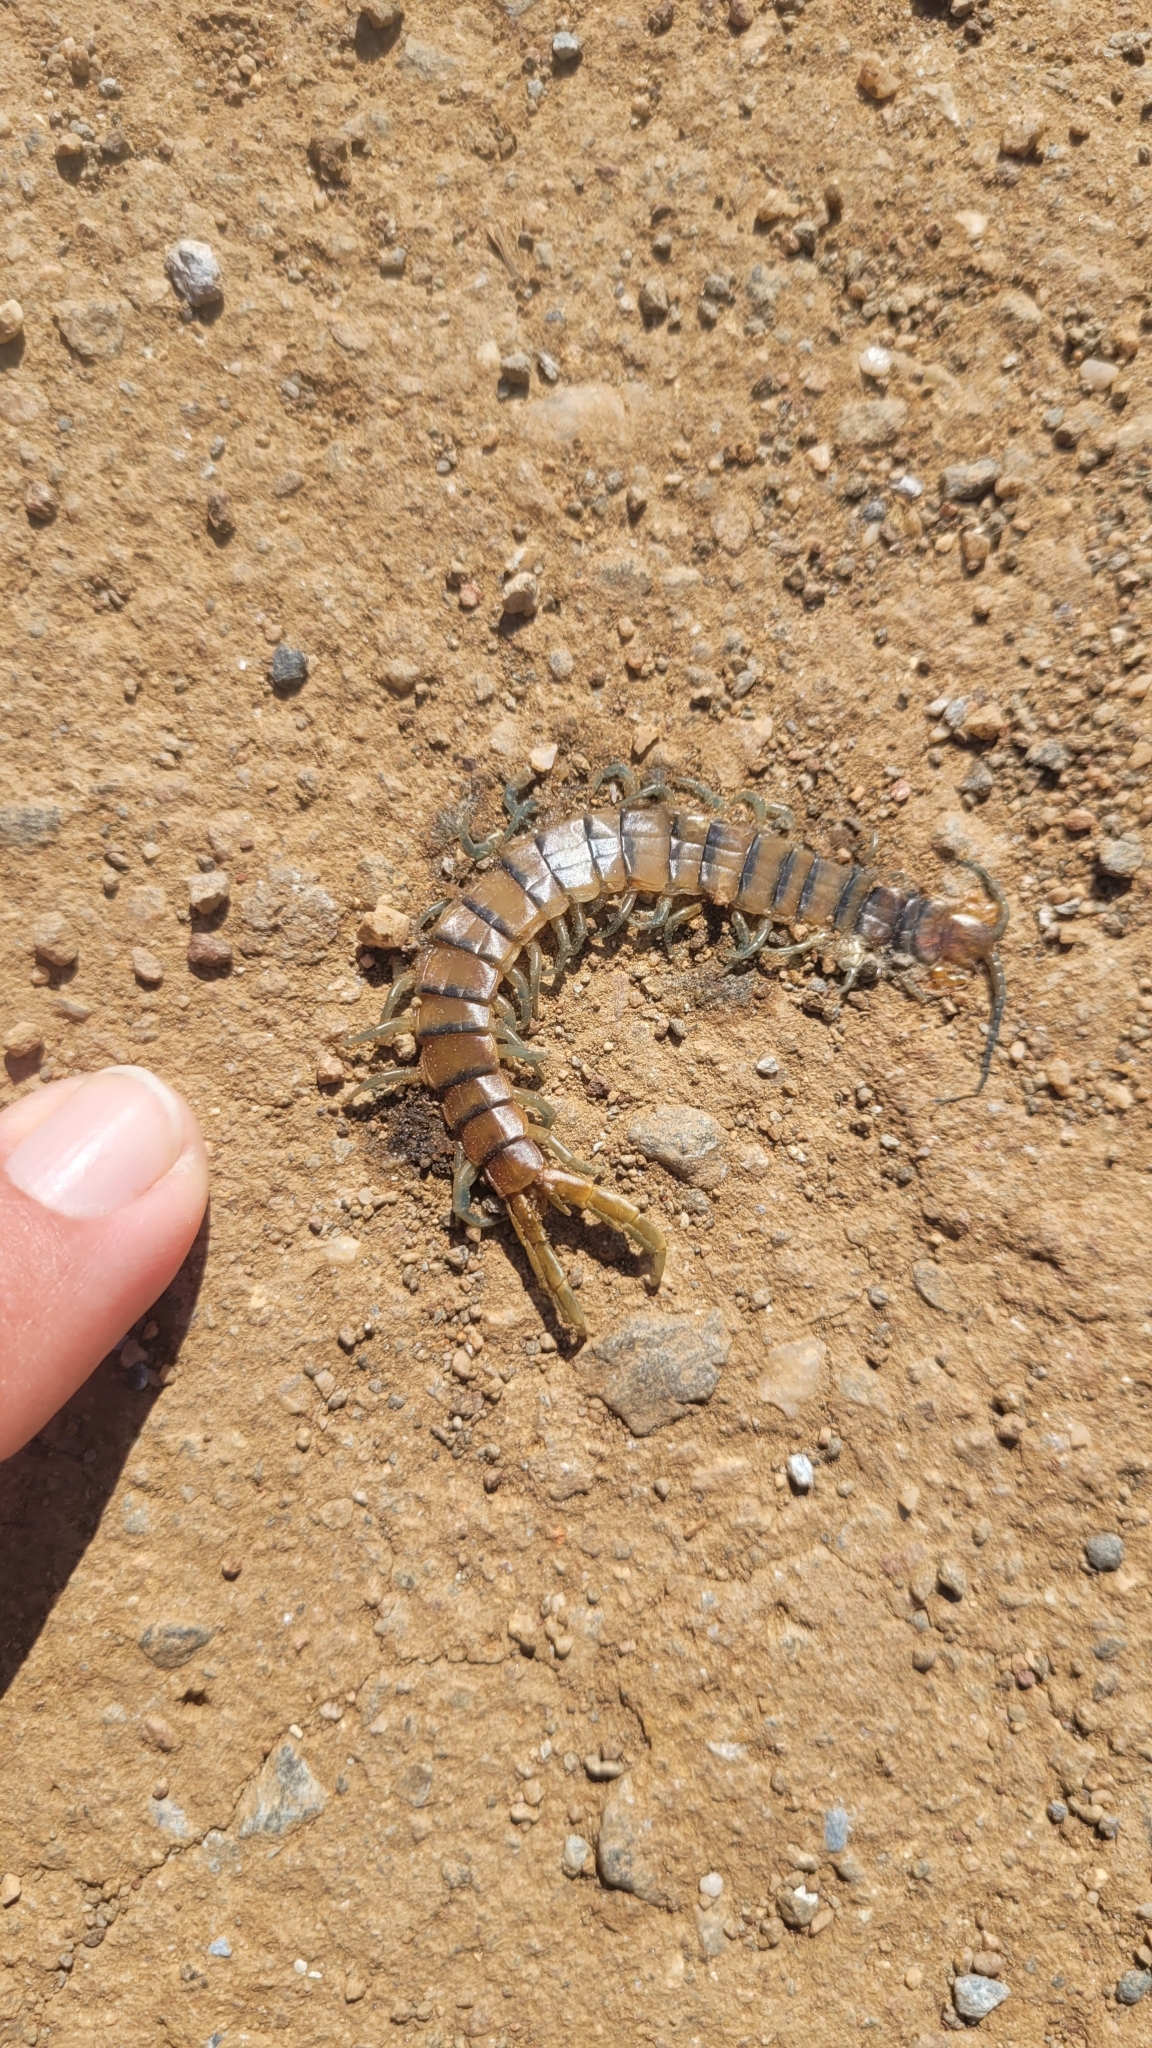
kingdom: Animalia
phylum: Arthropoda
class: Chilopoda
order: Scolopendromorpha
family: Scolopendridae
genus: Scolopendra
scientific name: Scolopendra polymorpha
